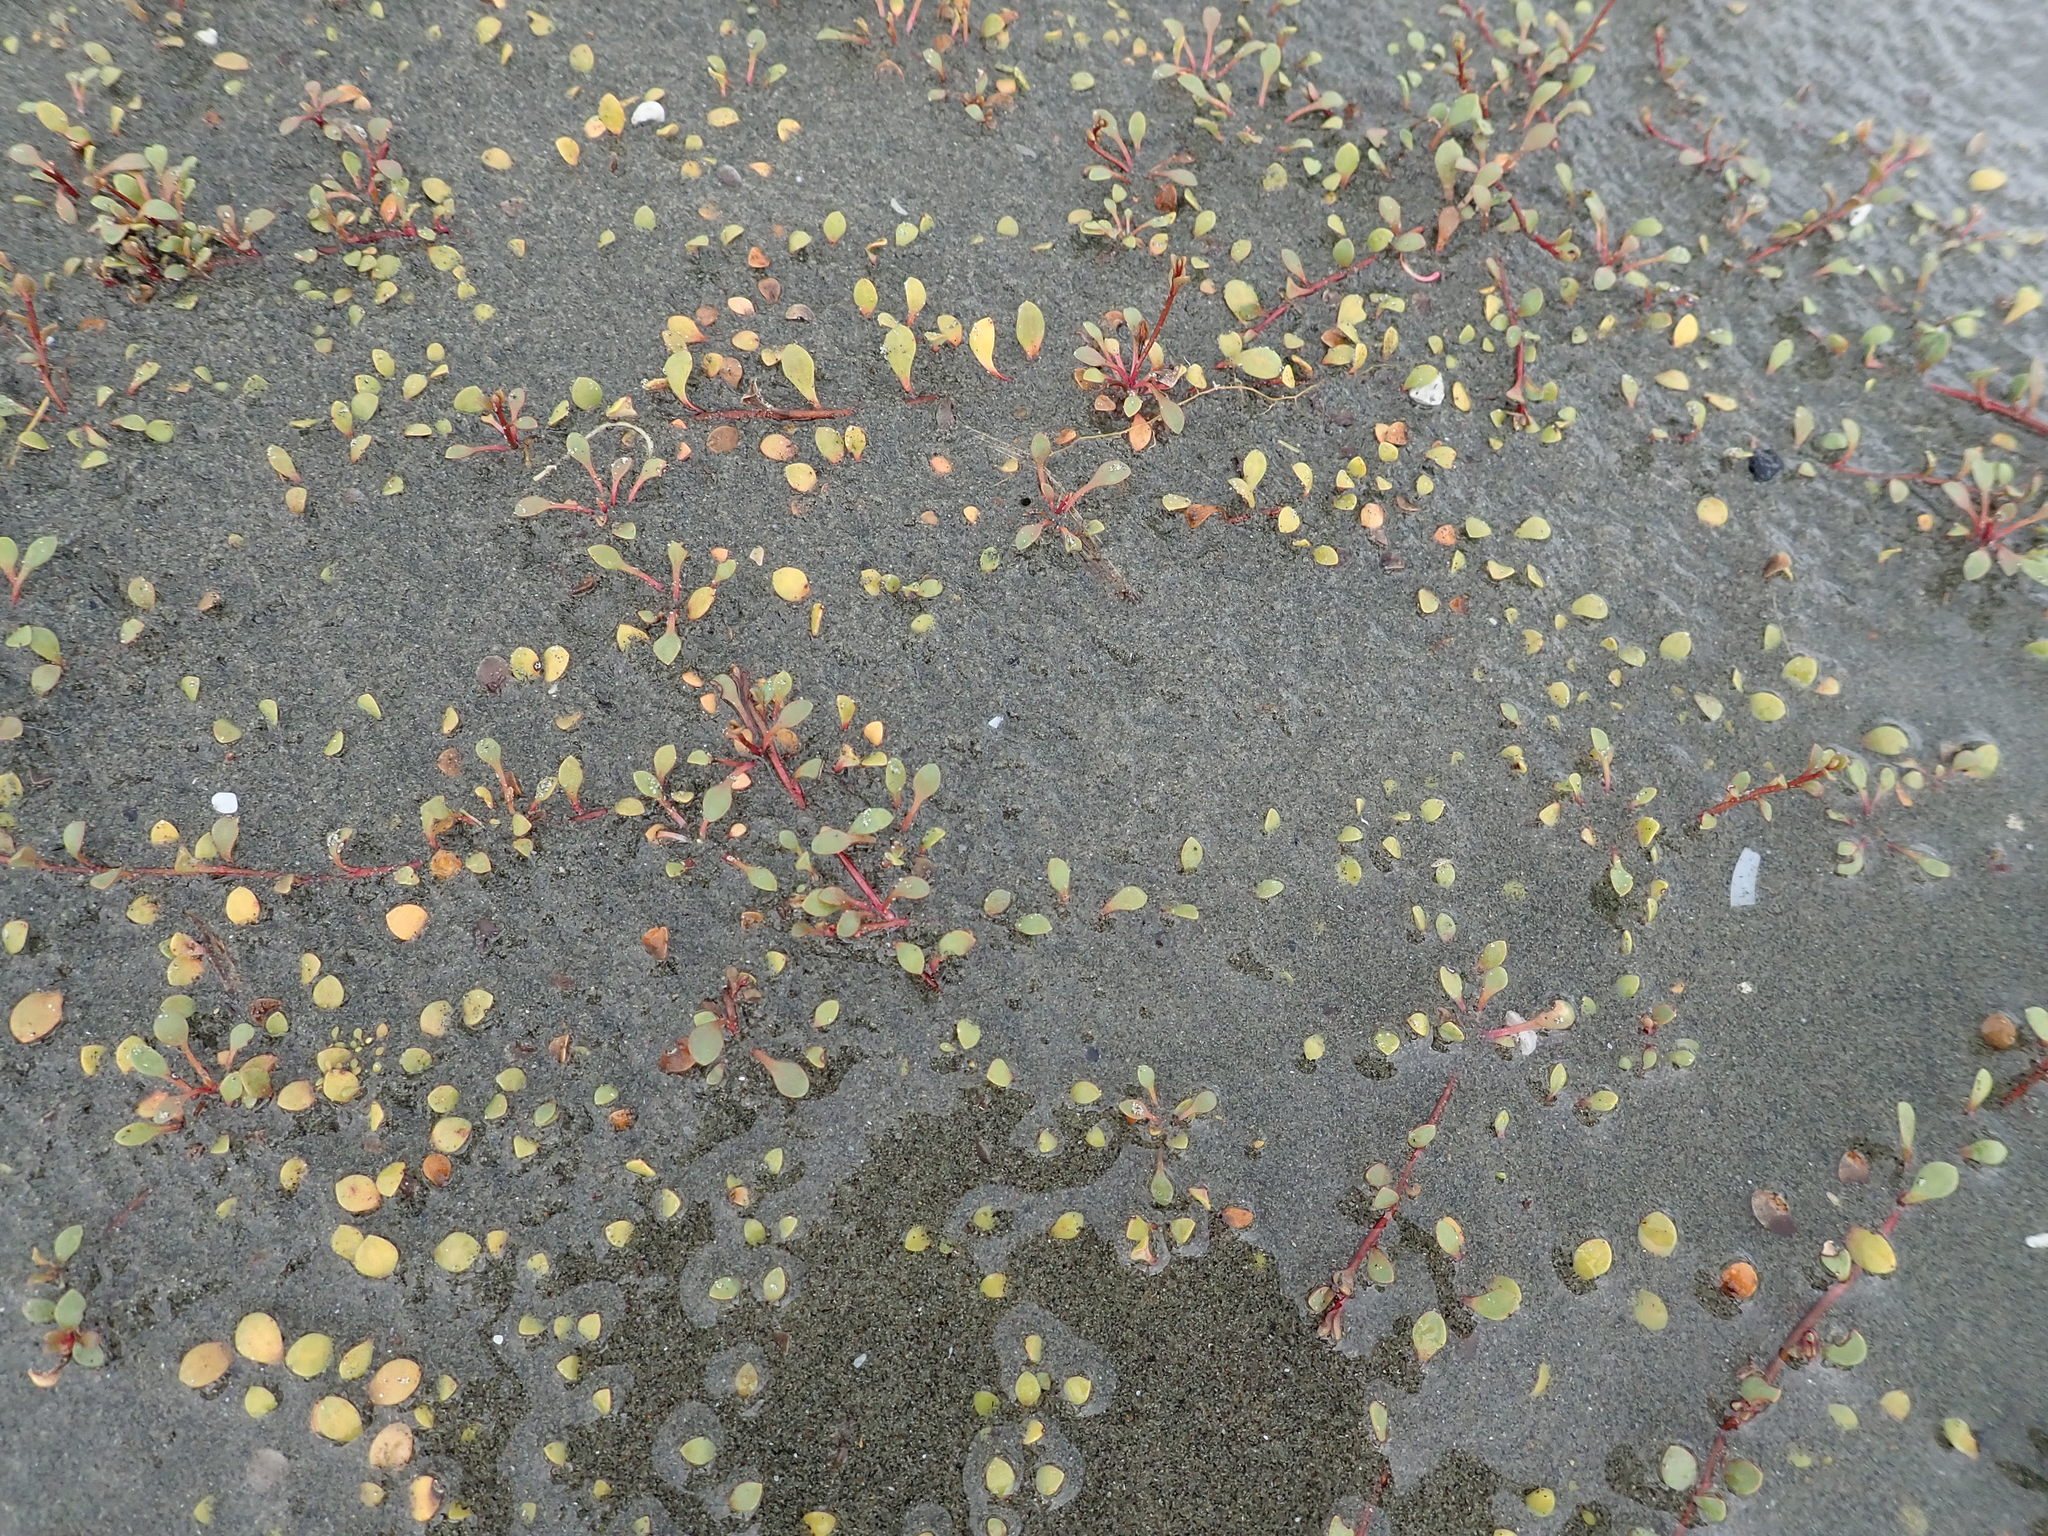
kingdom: Plantae
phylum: Tracheophyta
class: Magnoliopsida
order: Ericales
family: Primulaceae
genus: Samolus
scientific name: Samolus repens
